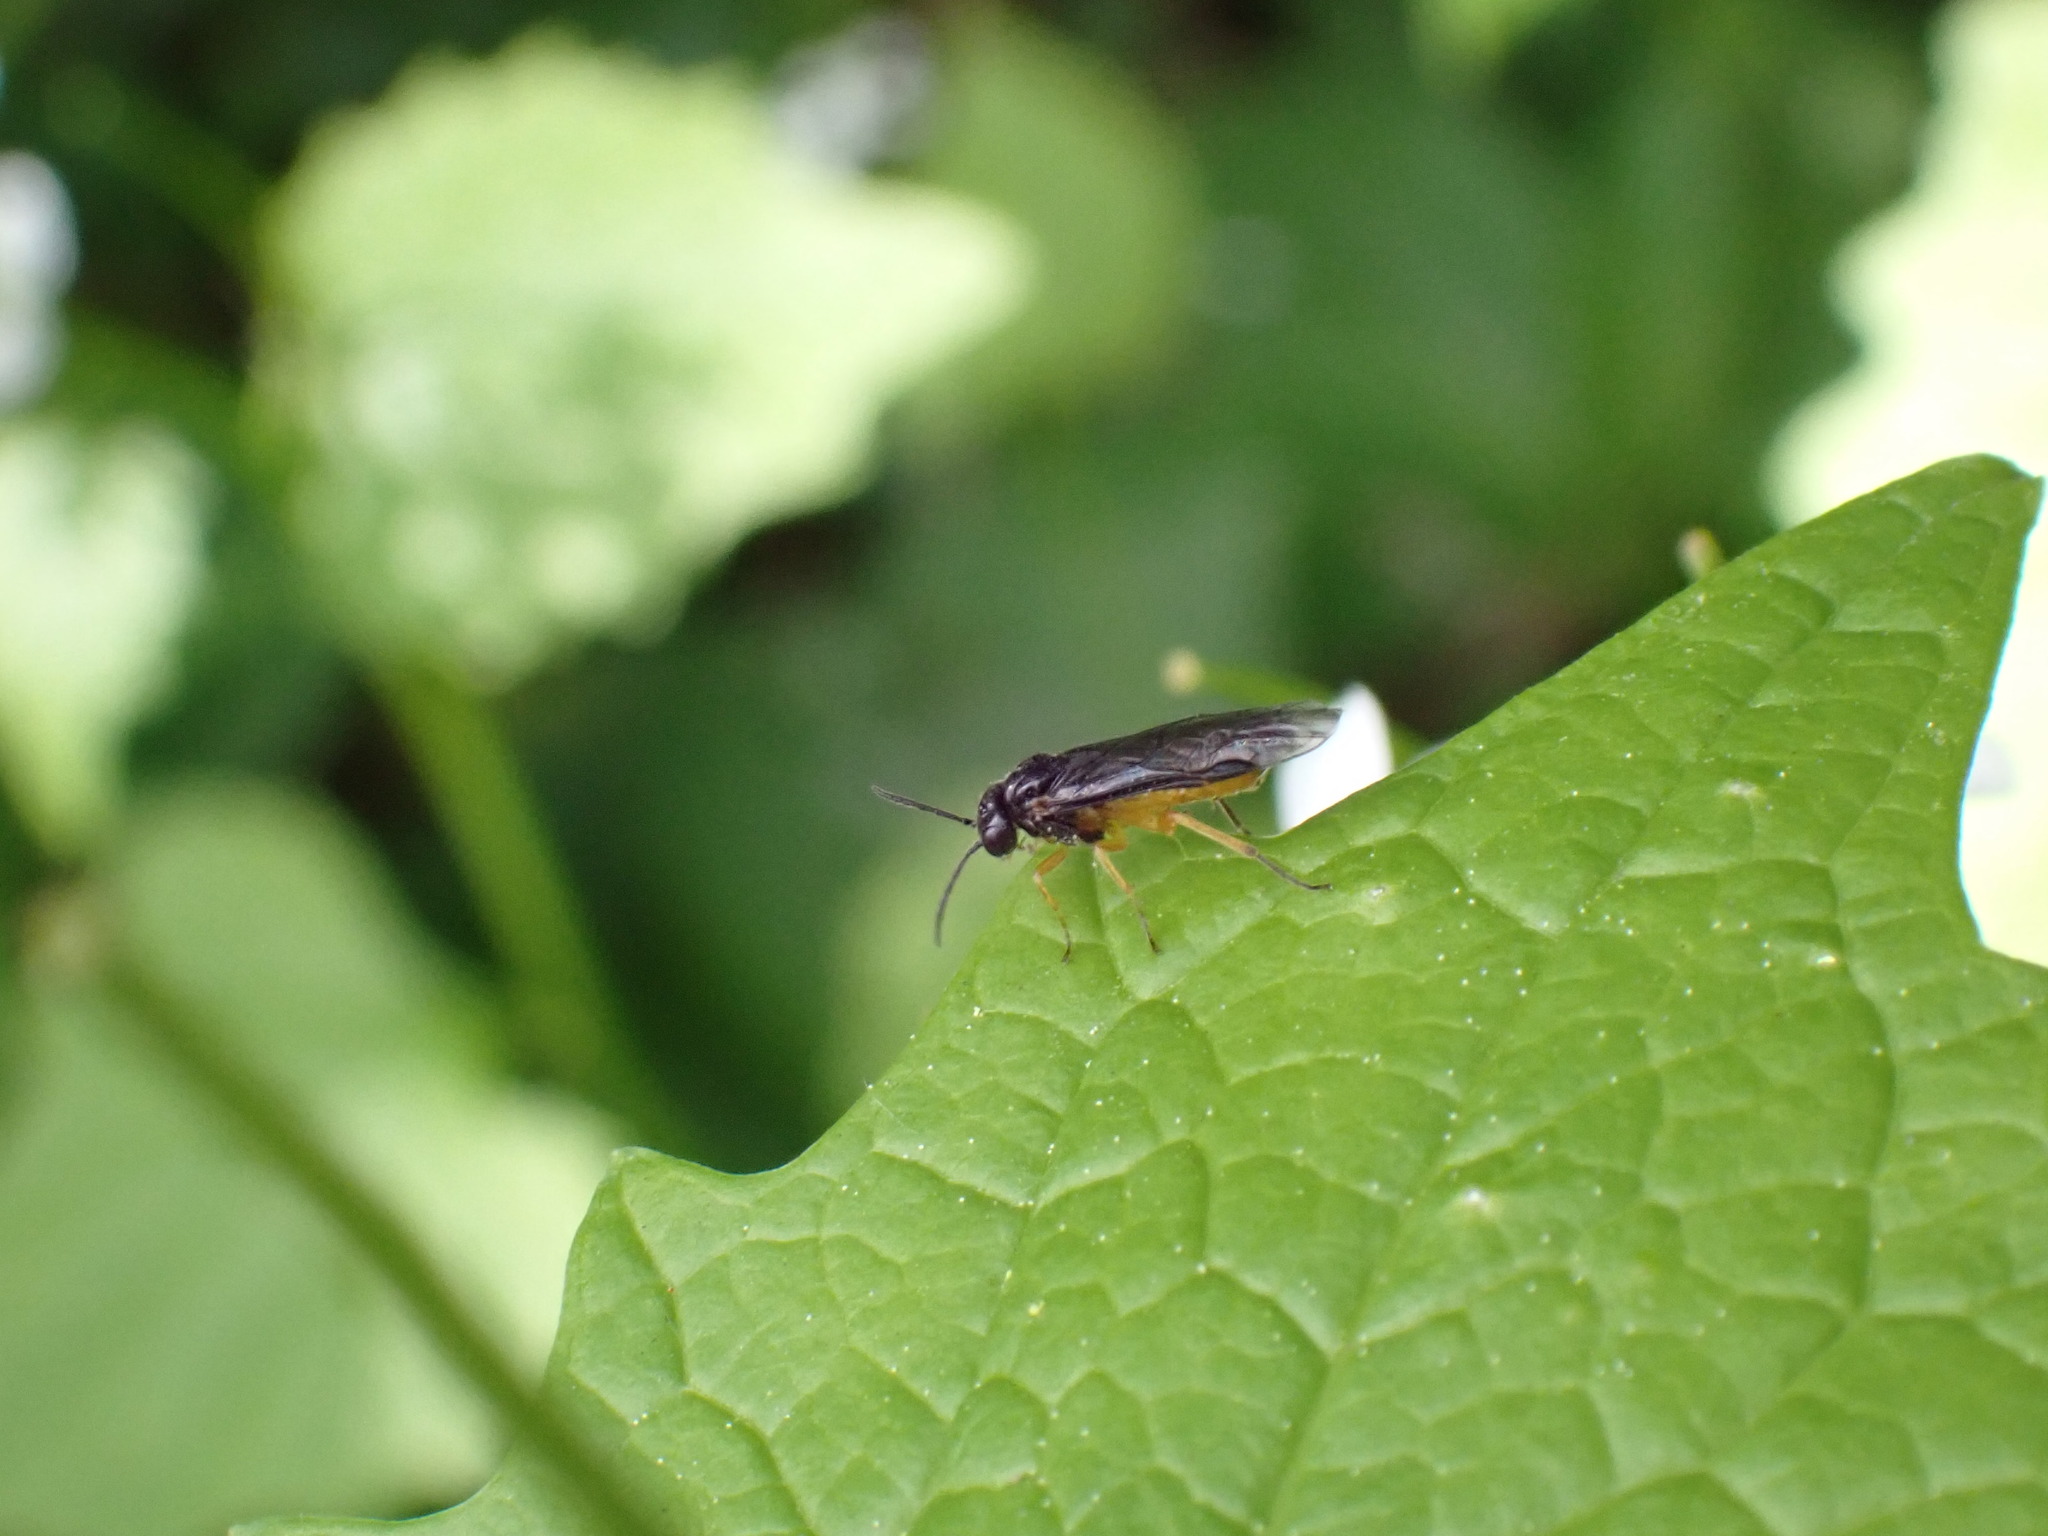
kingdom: Animalia
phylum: Arthropoda
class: Insecta
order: Hymenoptera
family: Tenthredinidae
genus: Halidamia
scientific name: Halidamia affinis
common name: Wasp
